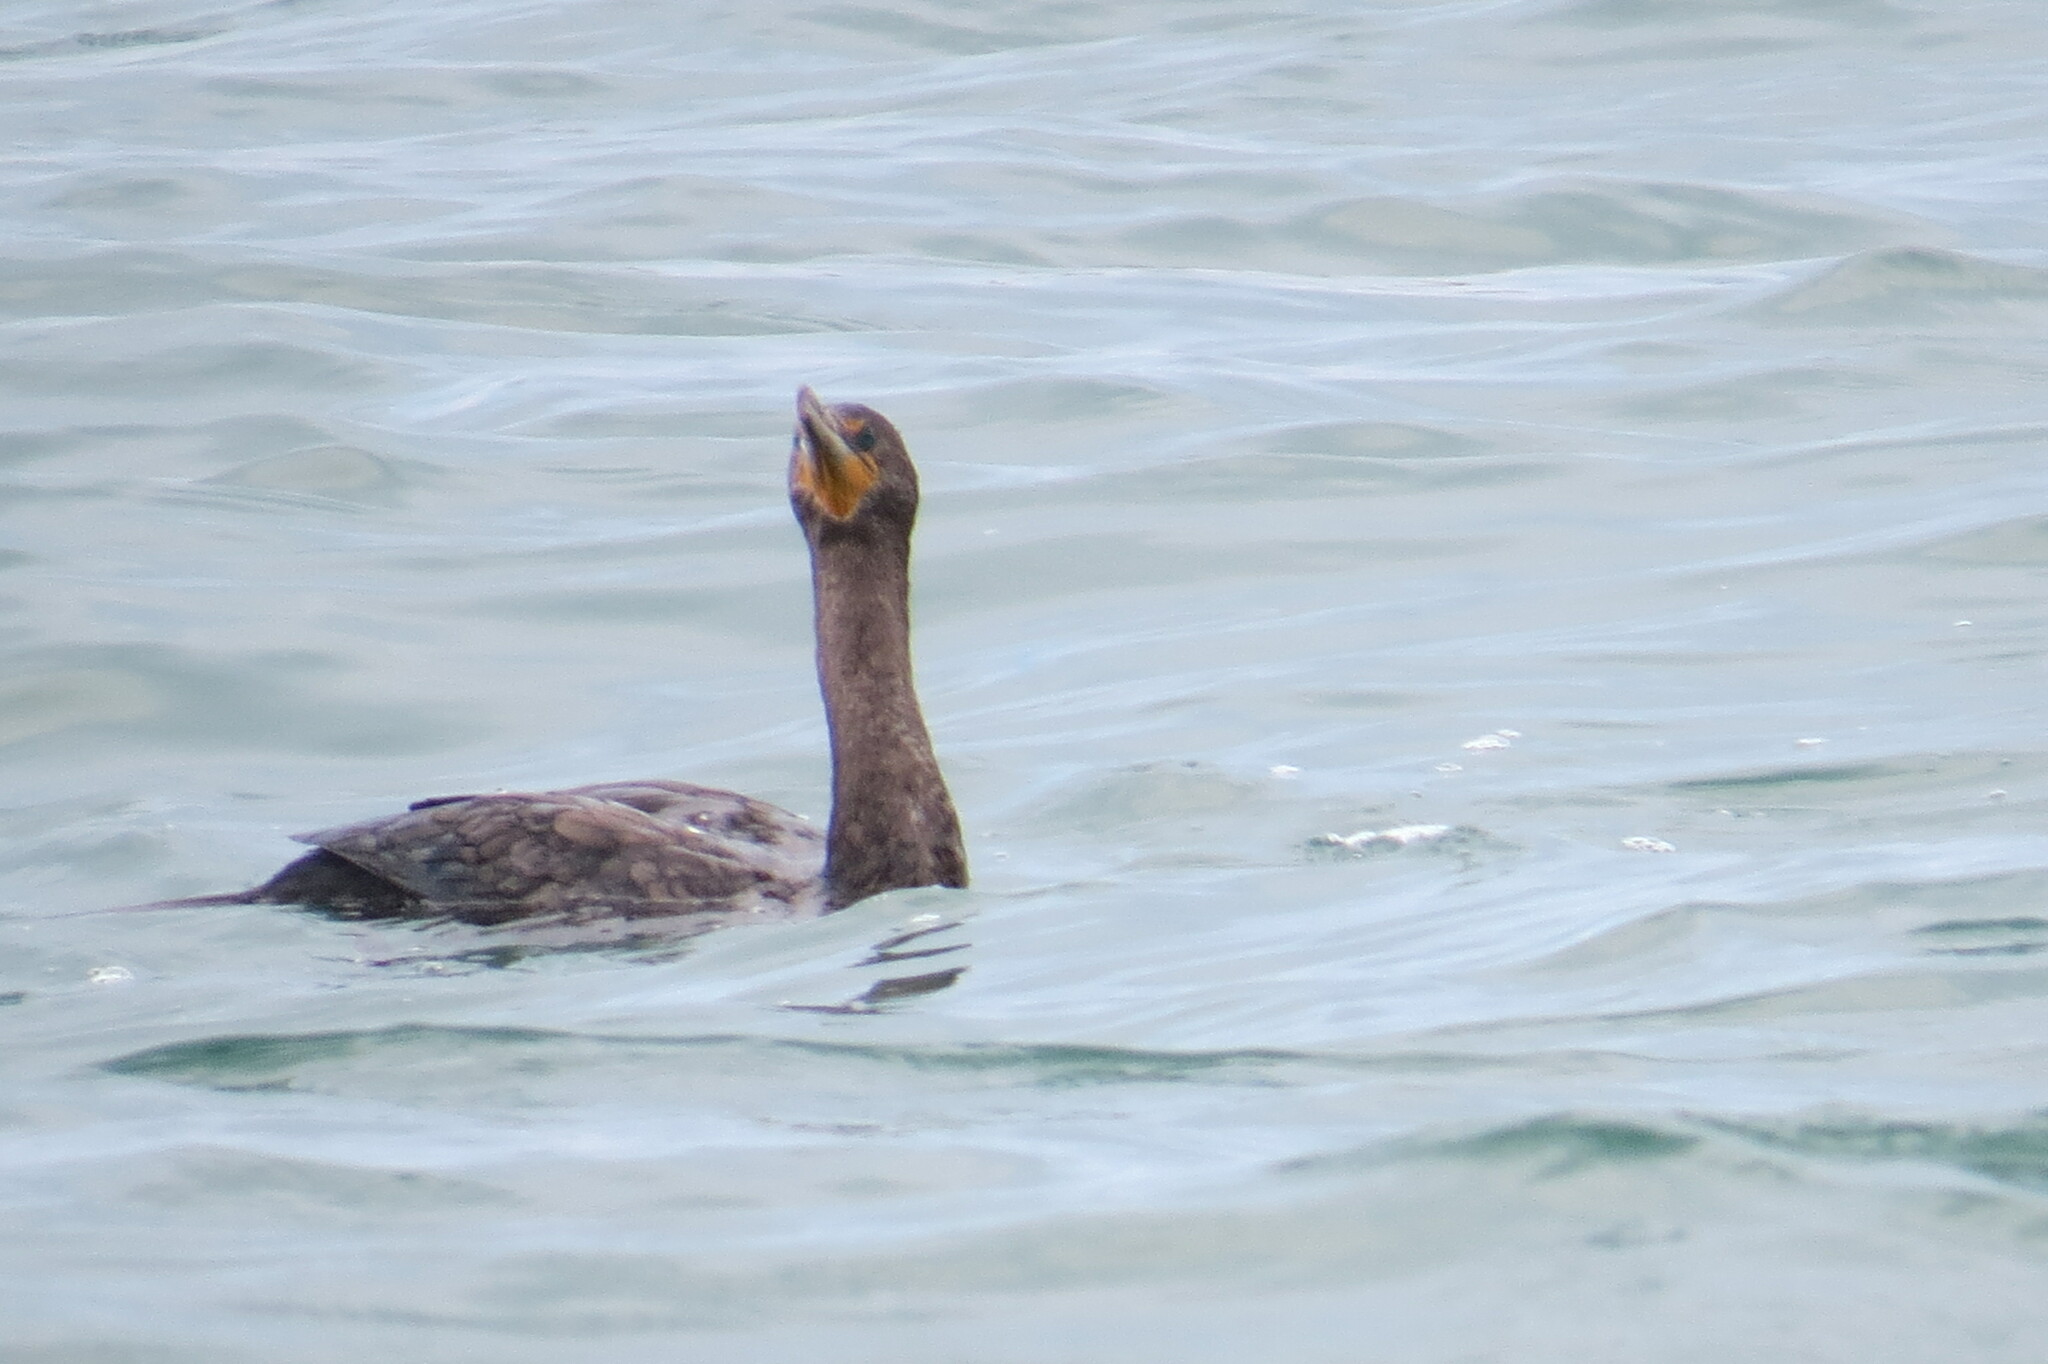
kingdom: Animalia
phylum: Chordata
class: Aves
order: Suliformes
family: Phalacrocoracidae
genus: Phalacrocorax
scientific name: Phalacrocorax auritus
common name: Double-crested cormorant
